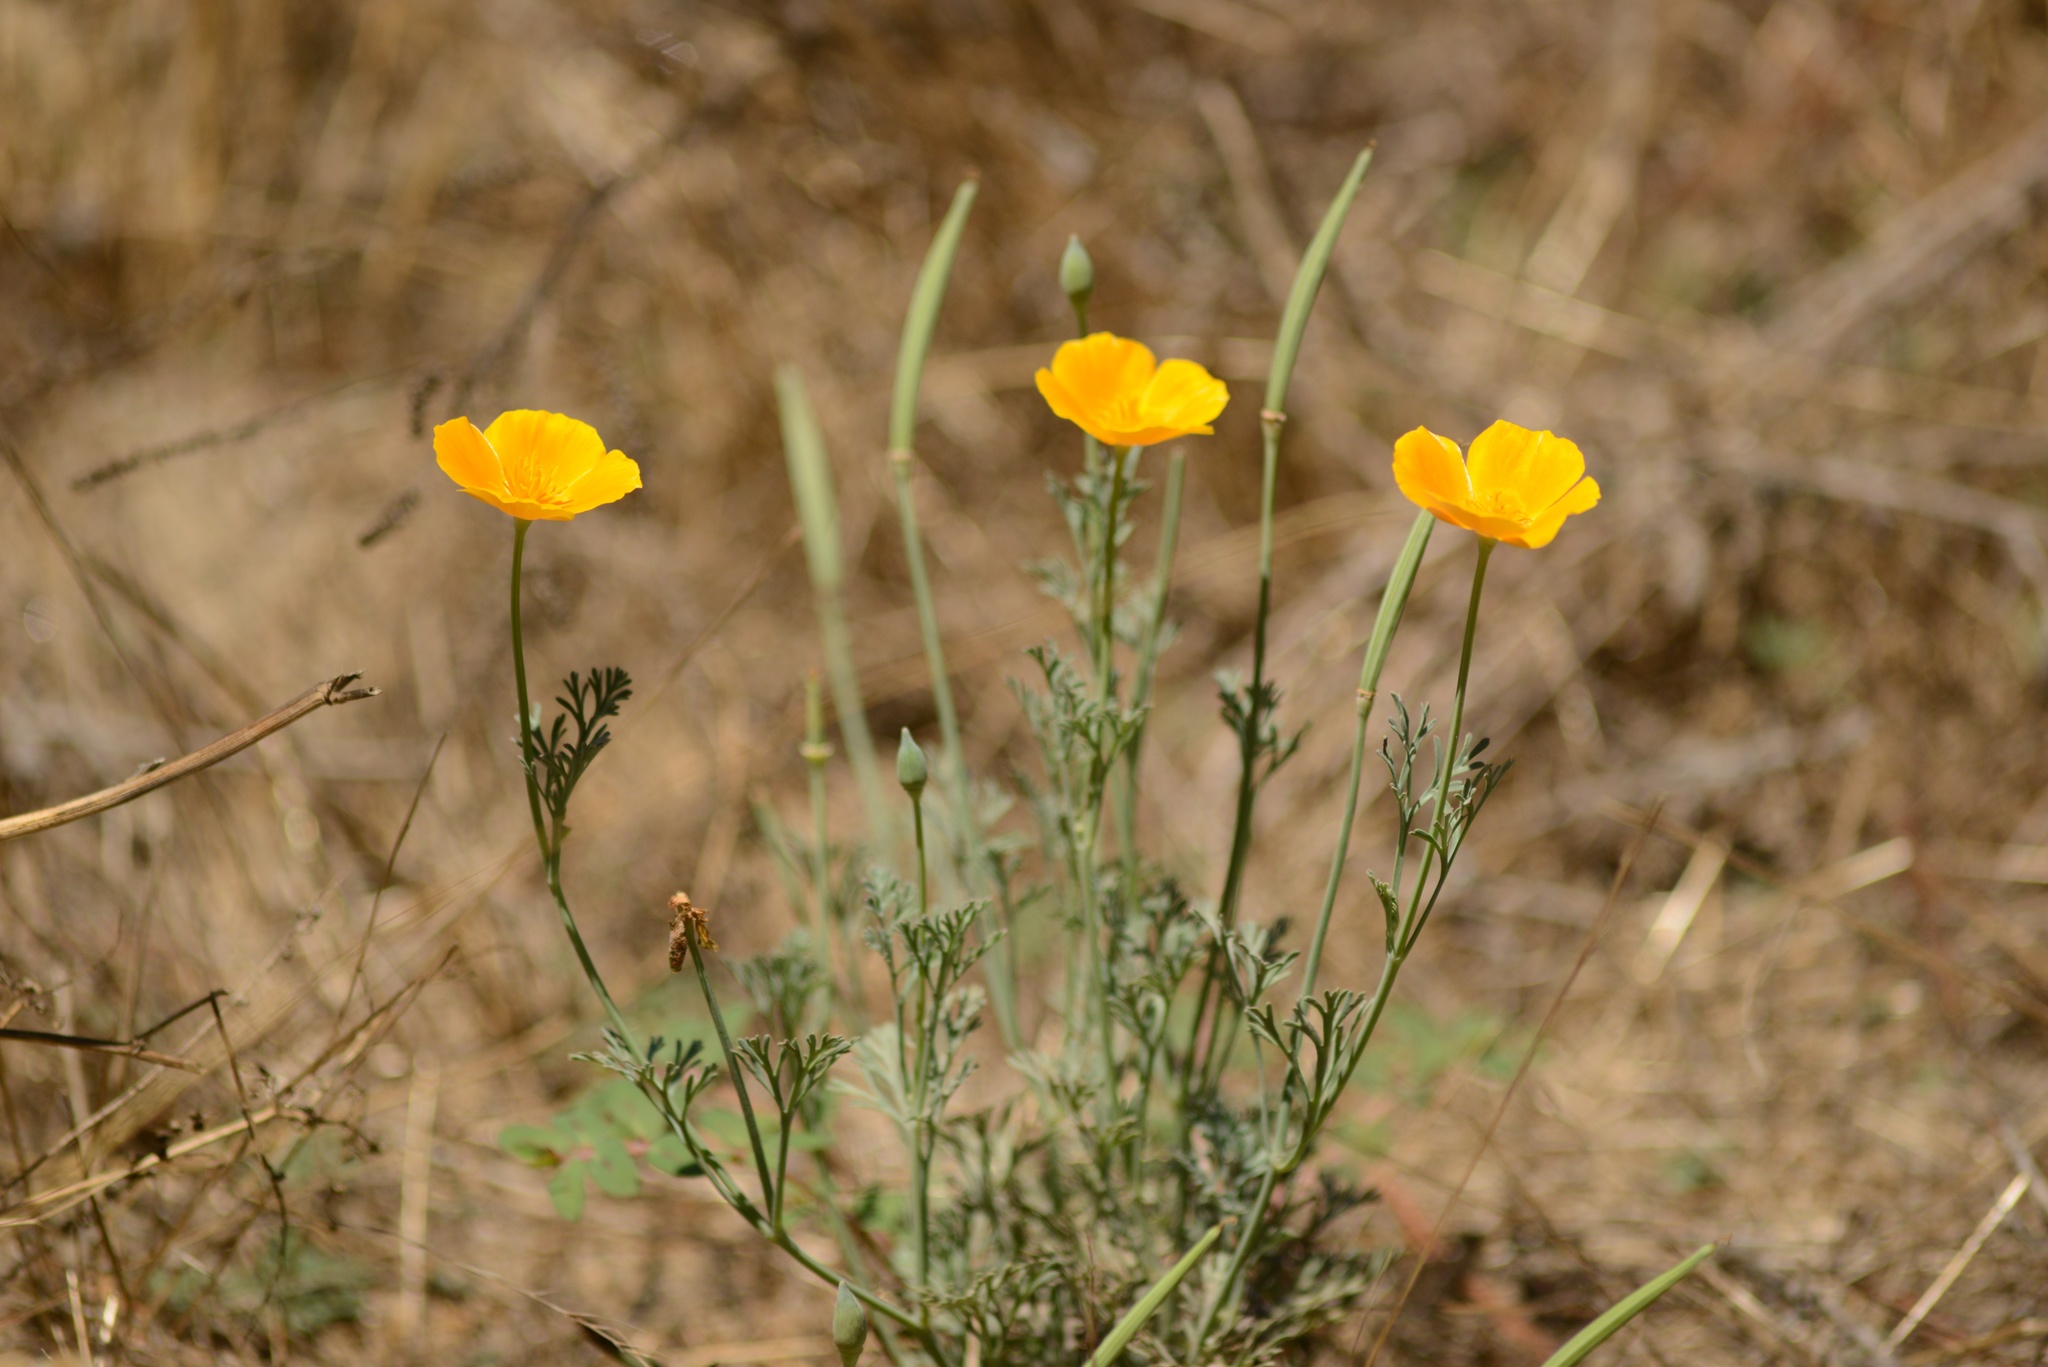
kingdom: Plantae
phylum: Tracheophyta
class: Magnoliopsida
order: Ranunculales
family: Papaveraceae
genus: Eschscholzia
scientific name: Eschscholzia californica
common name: California poppy
